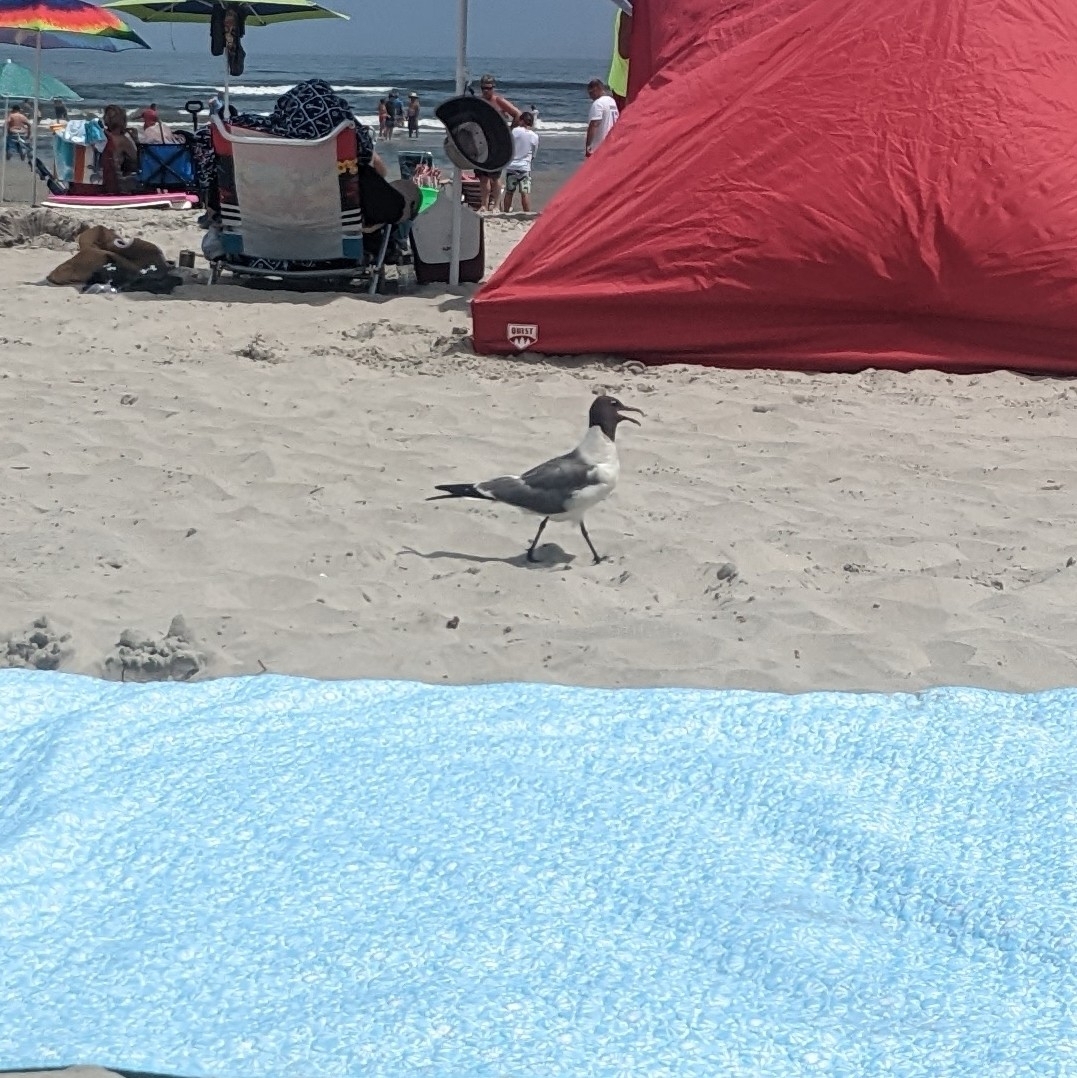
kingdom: Animalia
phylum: Chordata
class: Aves
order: Charadriiformes
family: Laridae
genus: Leucophaeus
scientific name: Leucophaeus atricilla
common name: Laughing gull
